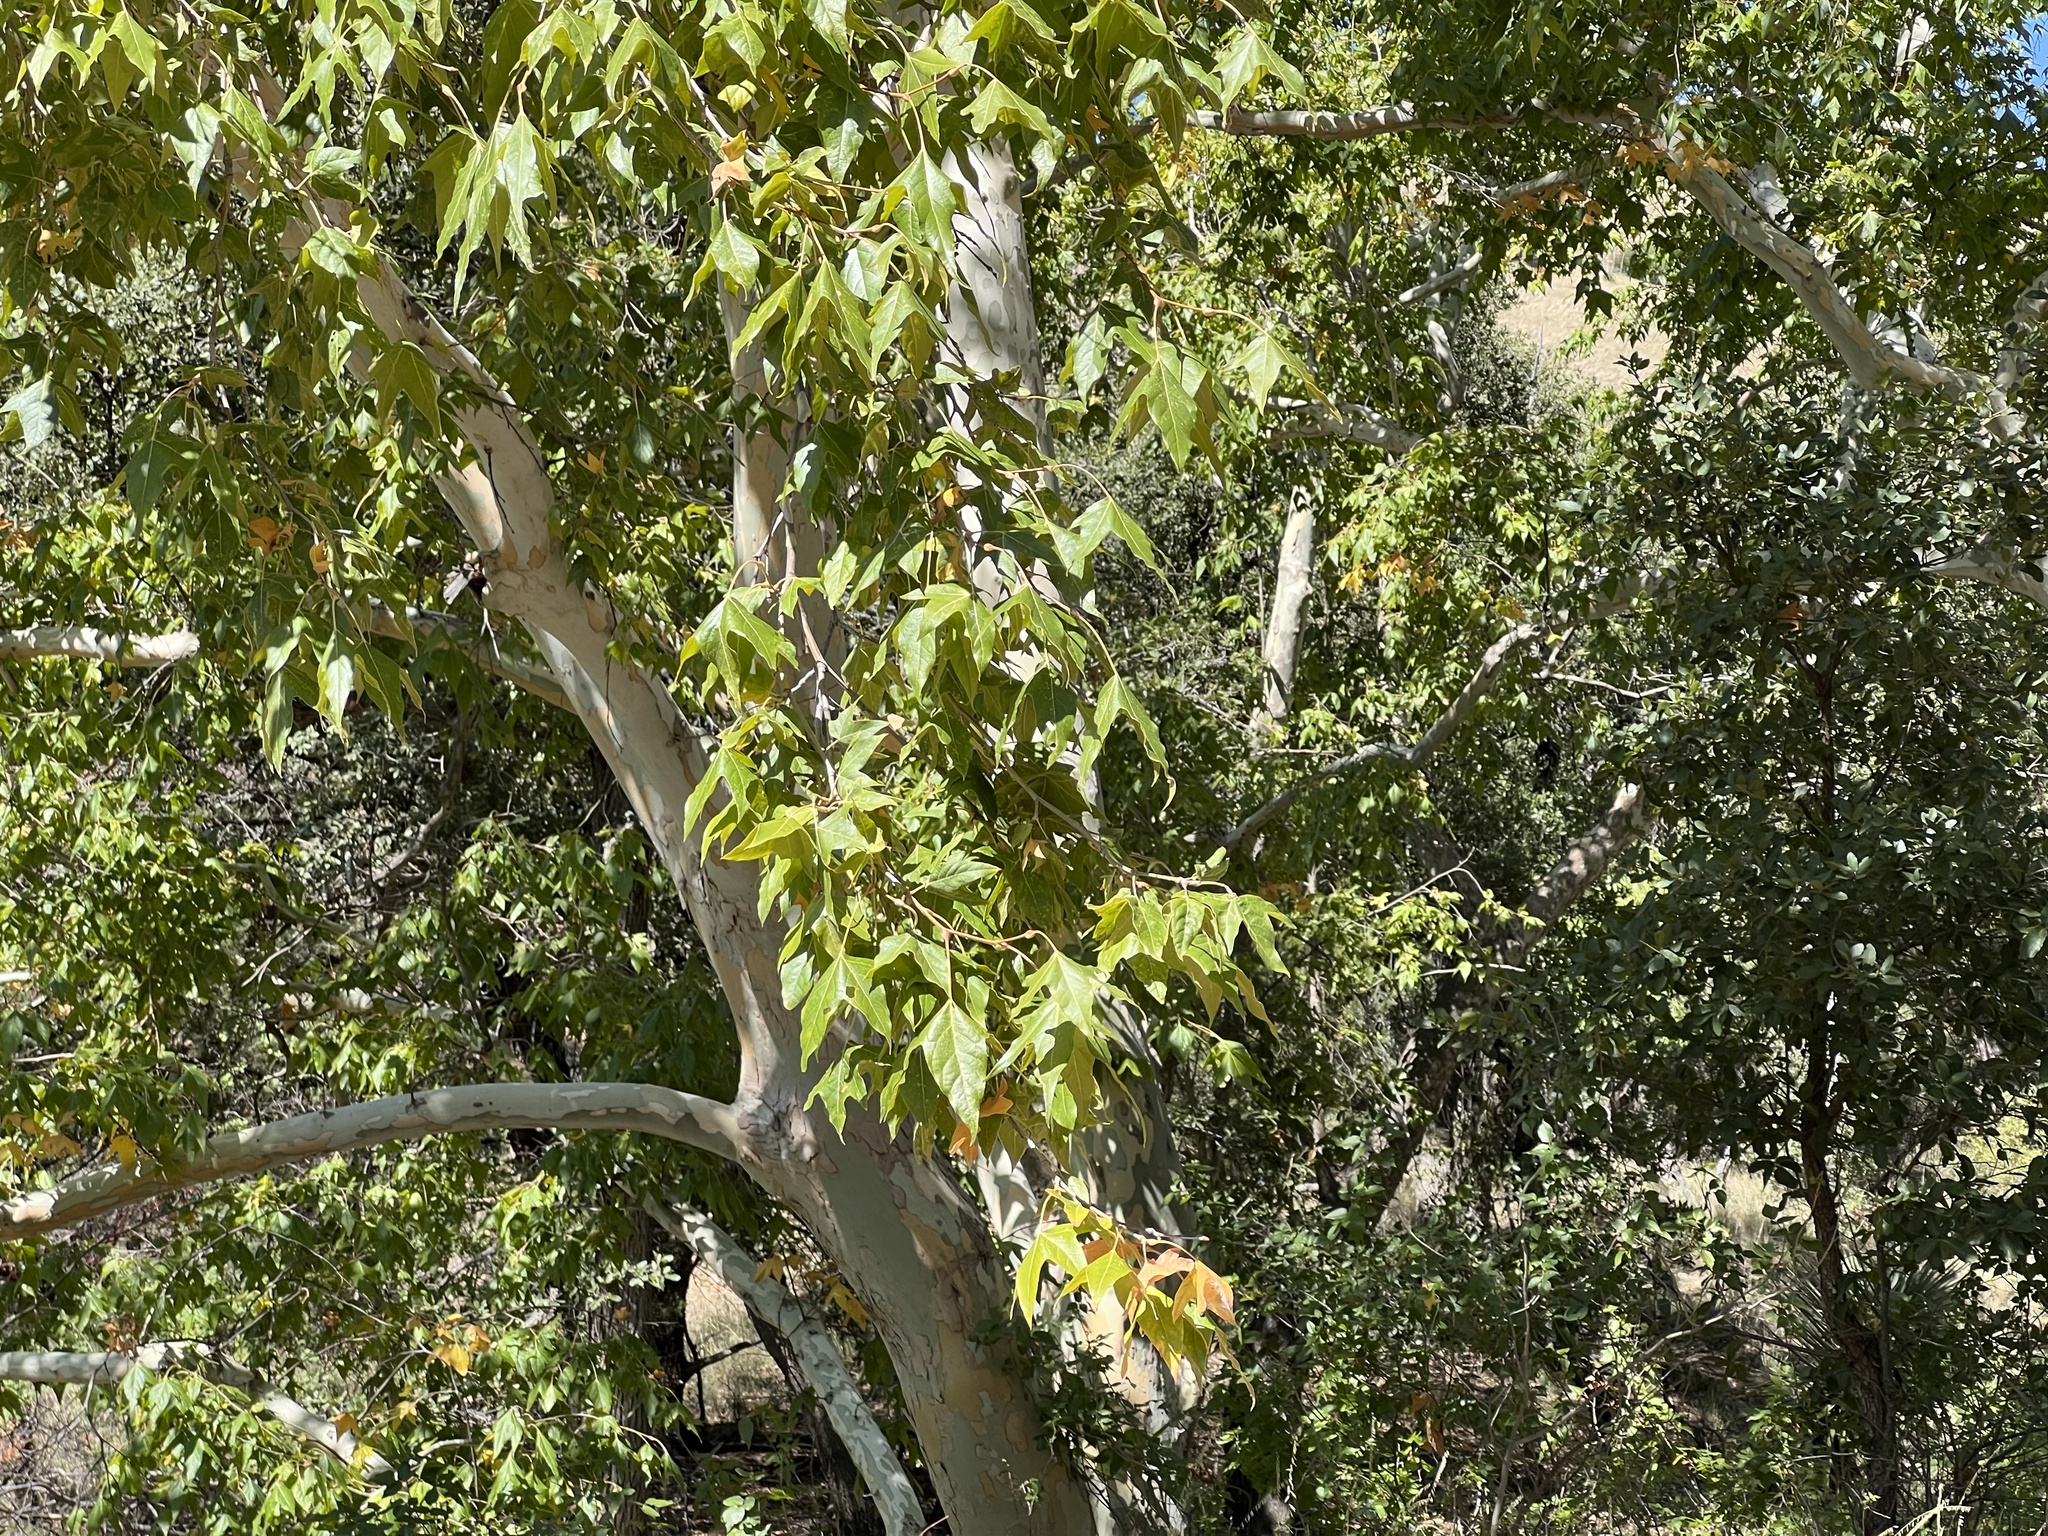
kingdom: Plantae
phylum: Tracheophyta
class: Magnoliopsida
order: Proteales
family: Platanaceae
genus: Platanus
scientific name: Platanus wrightii
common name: Arizona sycamore
